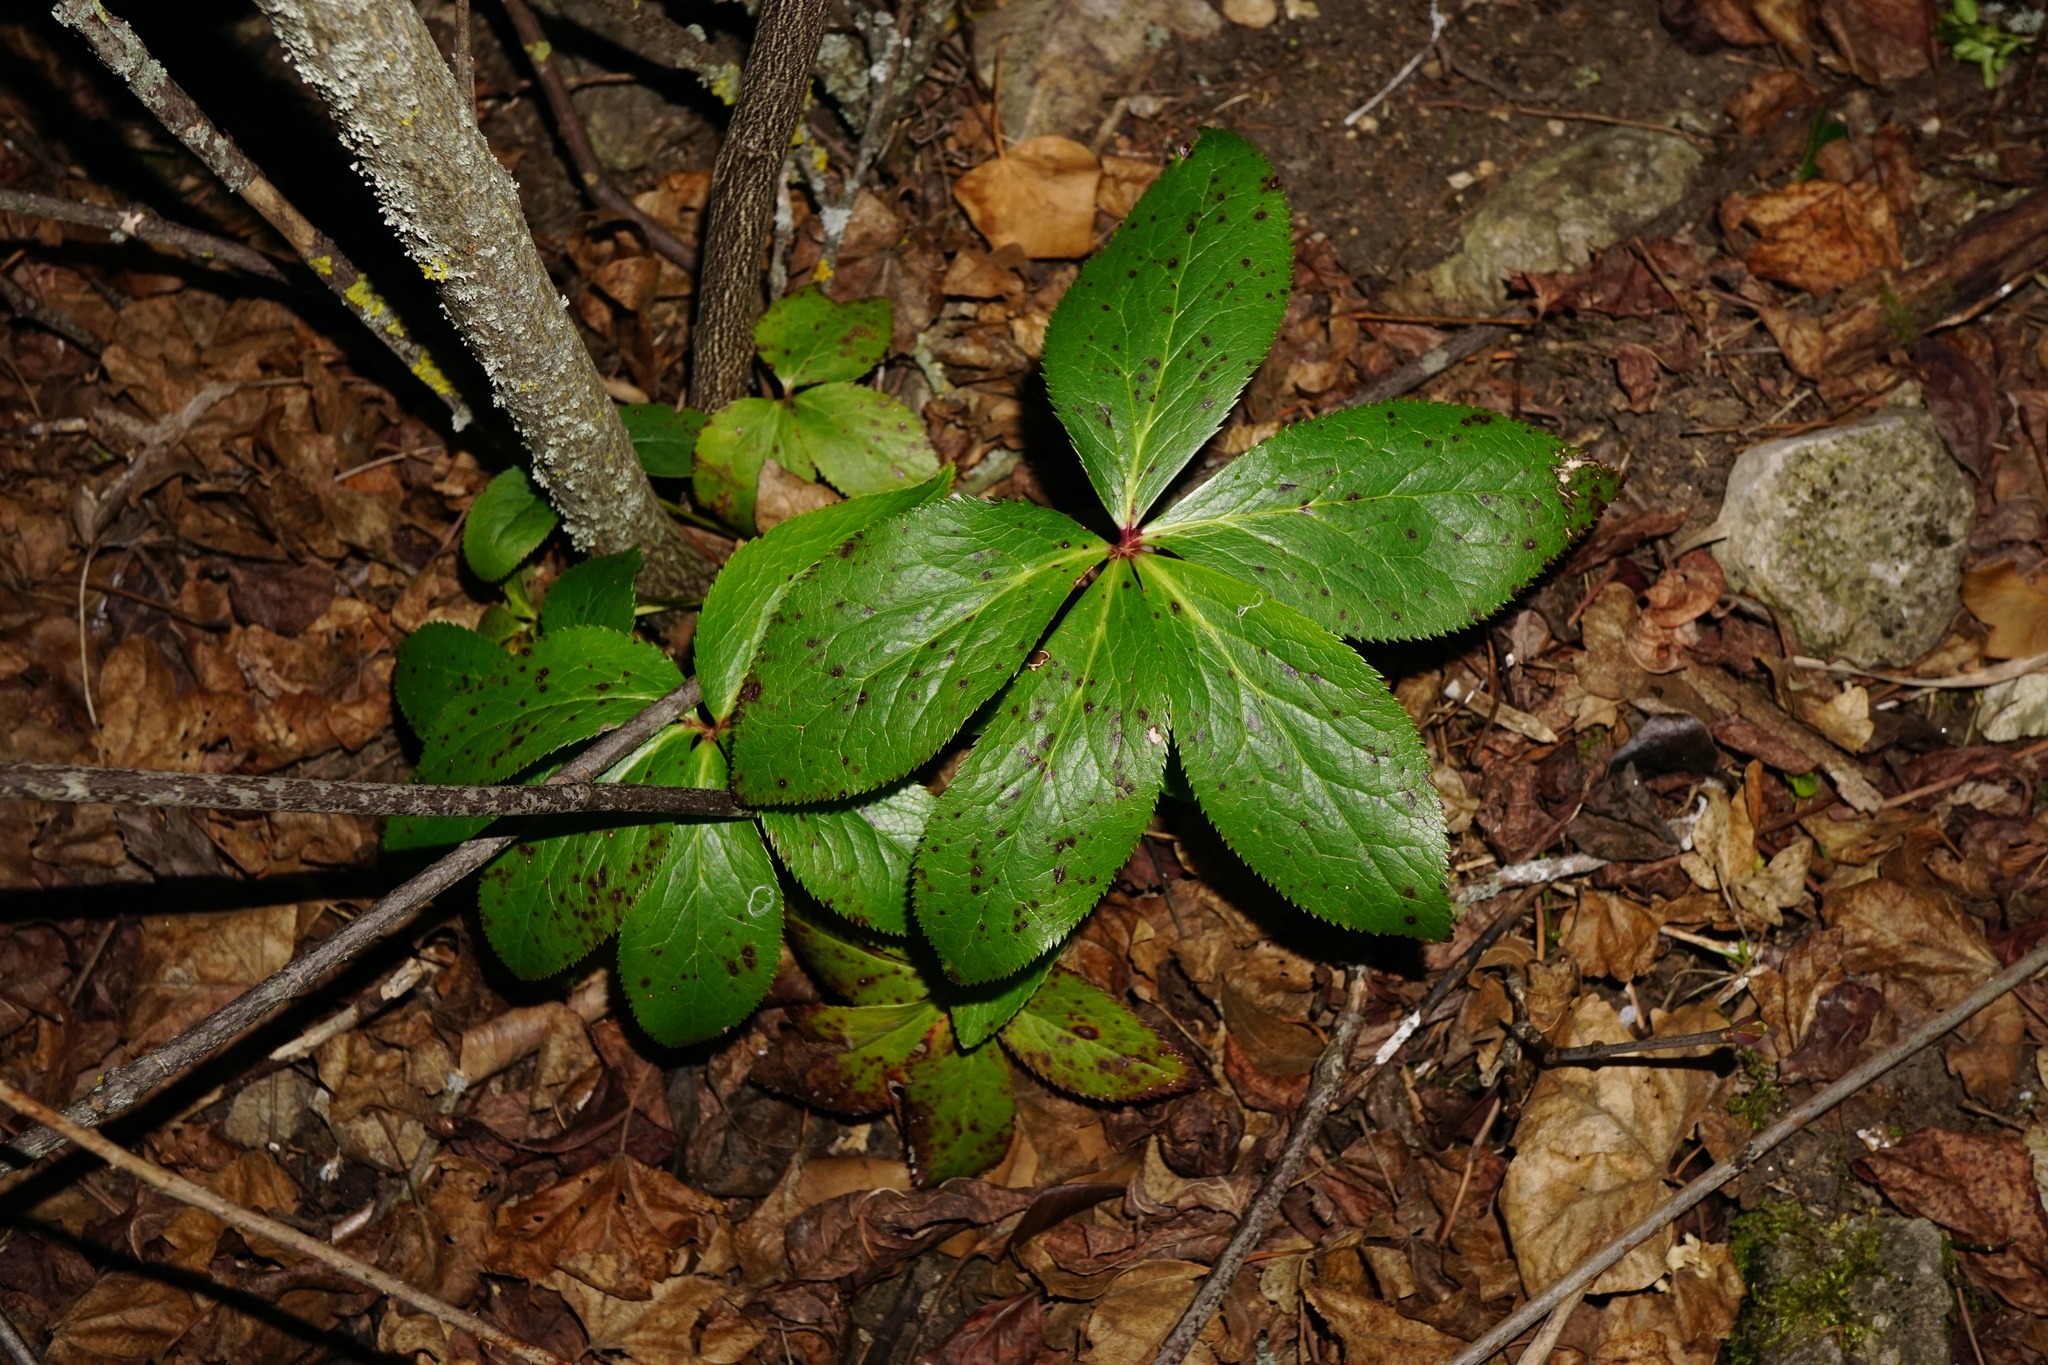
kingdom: Plantae
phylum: Tracheophyta
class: Magnoliopsida
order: Ranunculales
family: Ranunculaceae
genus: Helleborus
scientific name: Helleborus hybridus
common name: Hybrid lenten-rose
